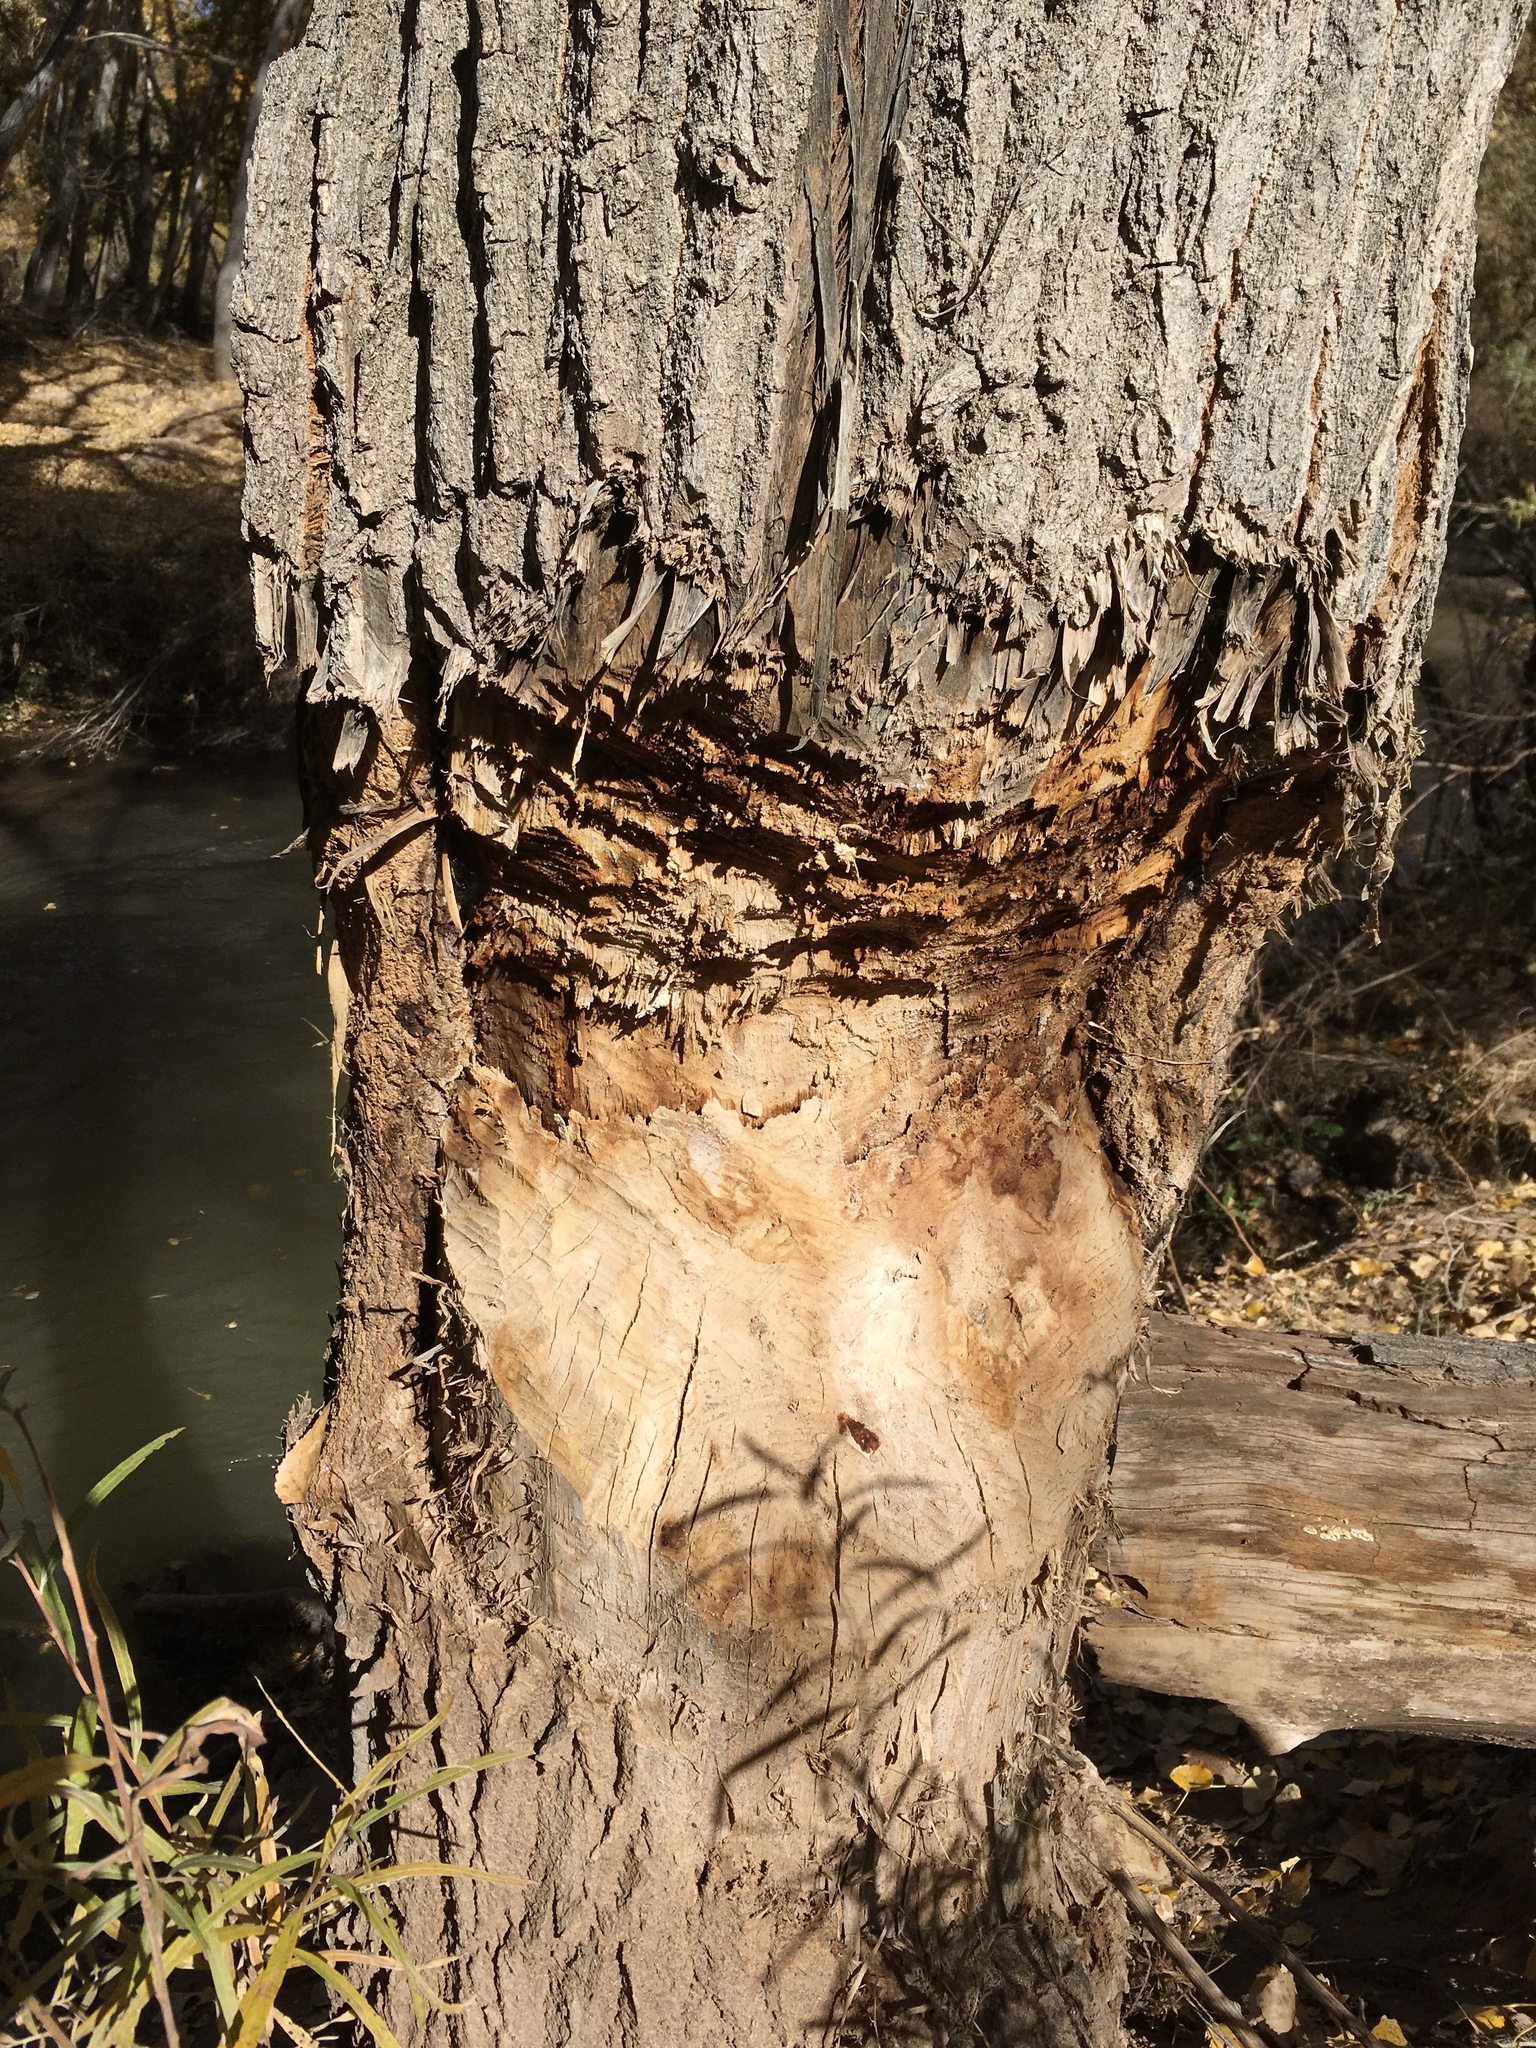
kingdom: Animalia
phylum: Chordata
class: Mammalia
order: Rodentia
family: Castoridae
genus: Castor
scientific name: Castor canadensis
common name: American beaver
